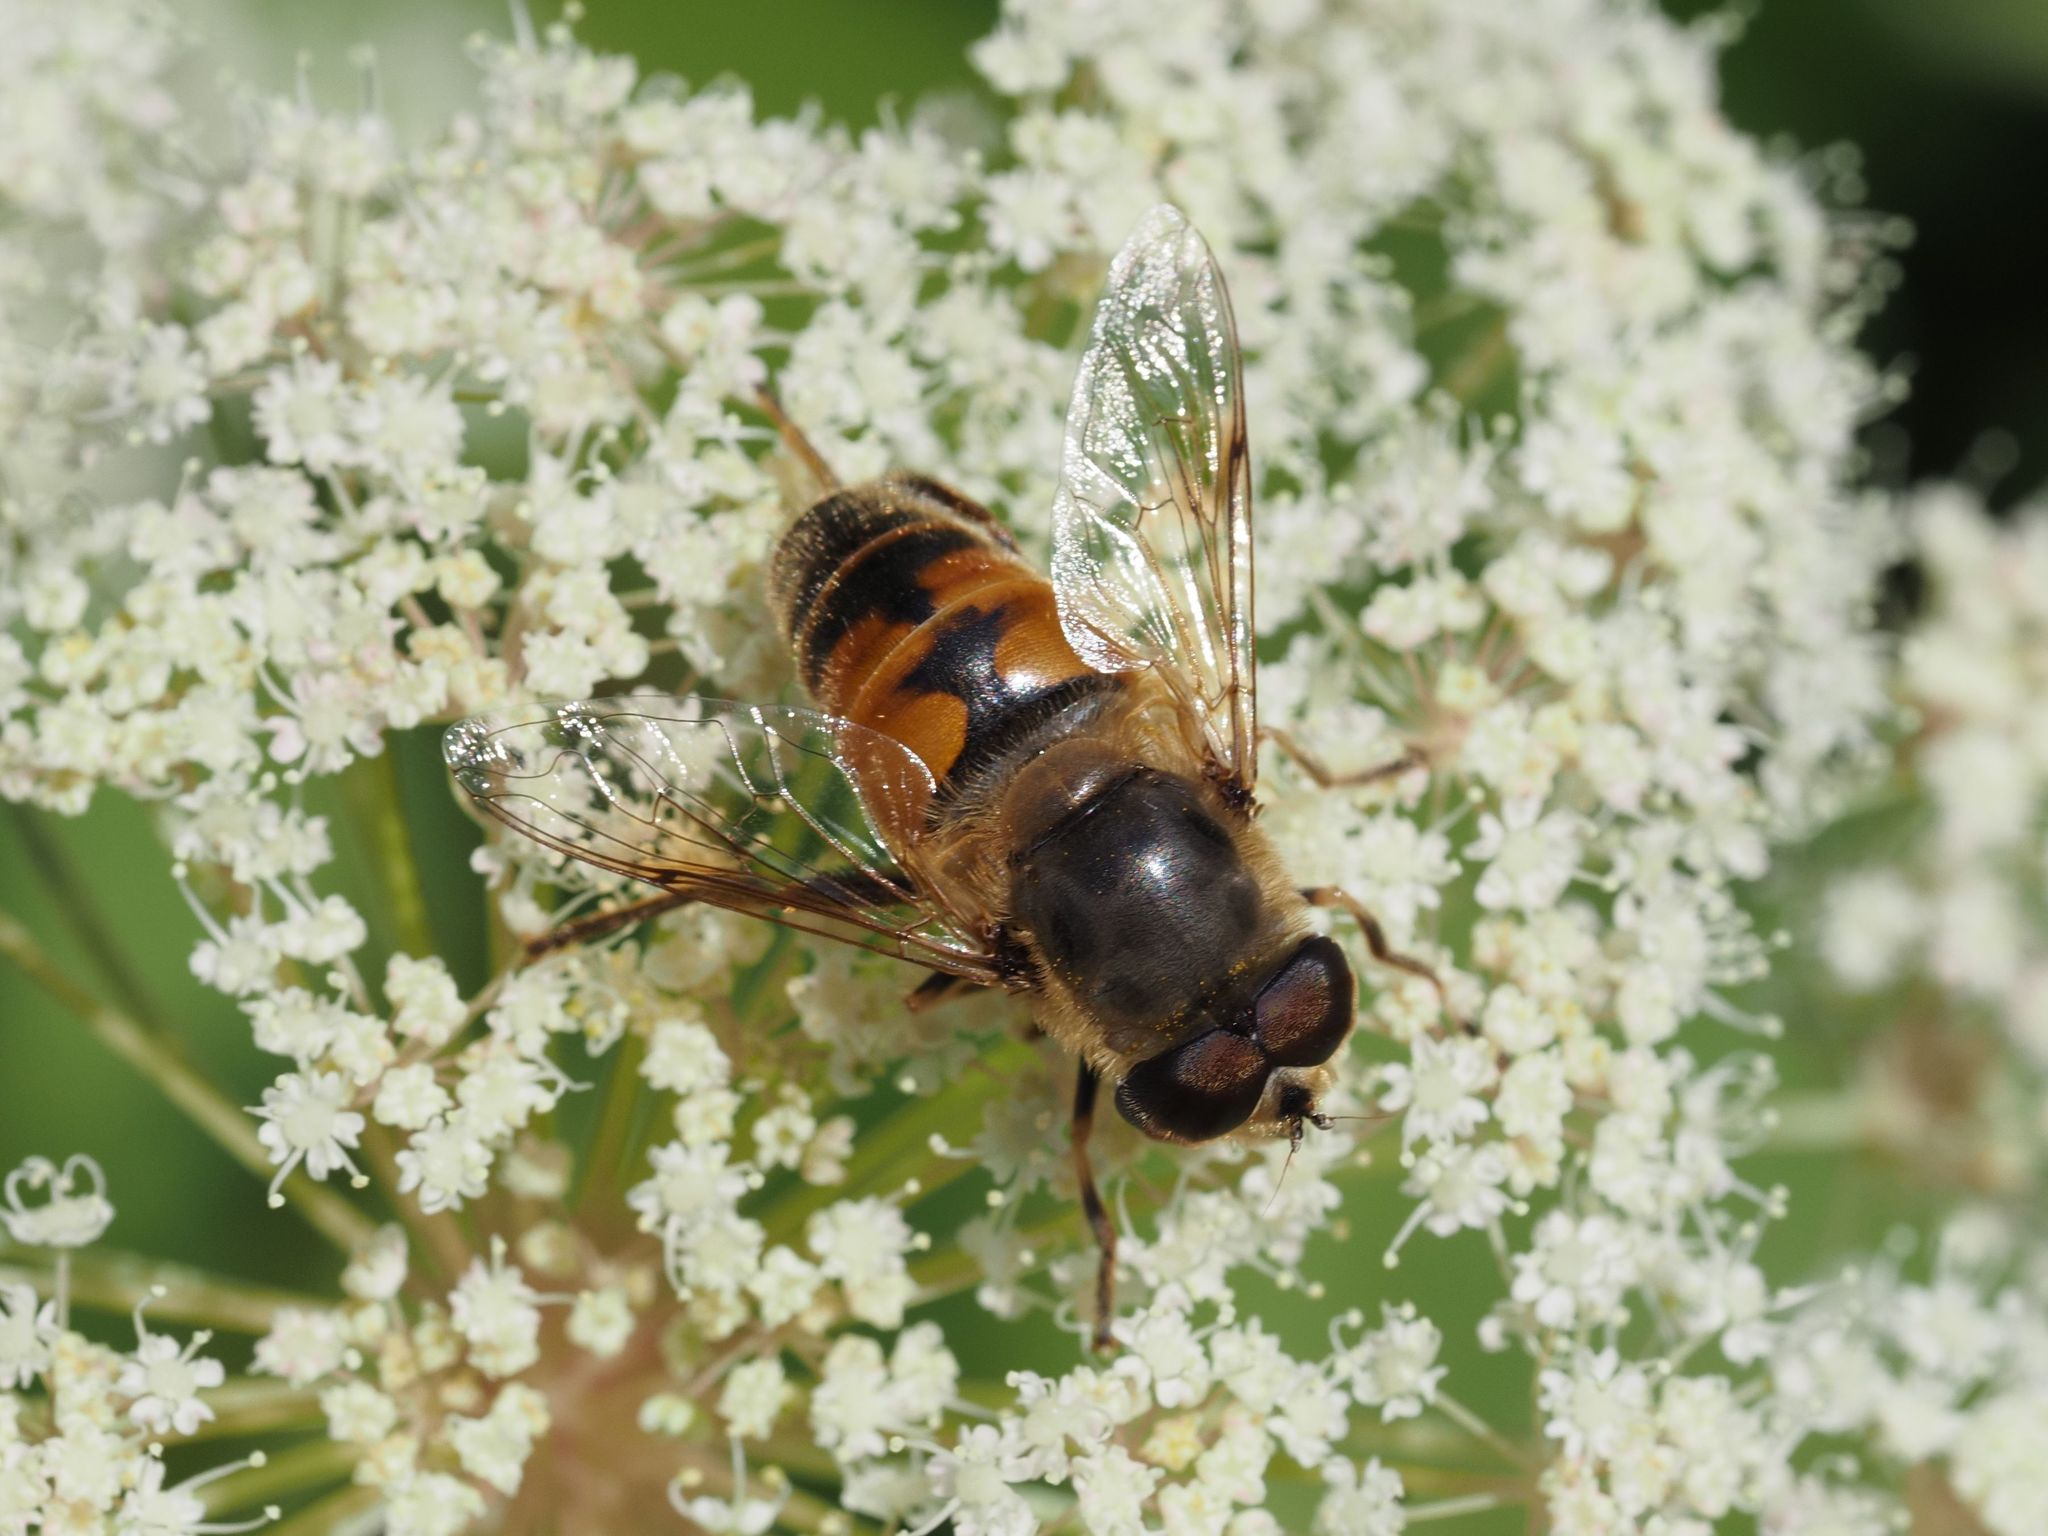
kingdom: Animalia
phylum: Arthropoda
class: Insecta
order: Diptera
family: Syrphidae
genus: Eristalis
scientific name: Eristalis tenax
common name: Drone fly
